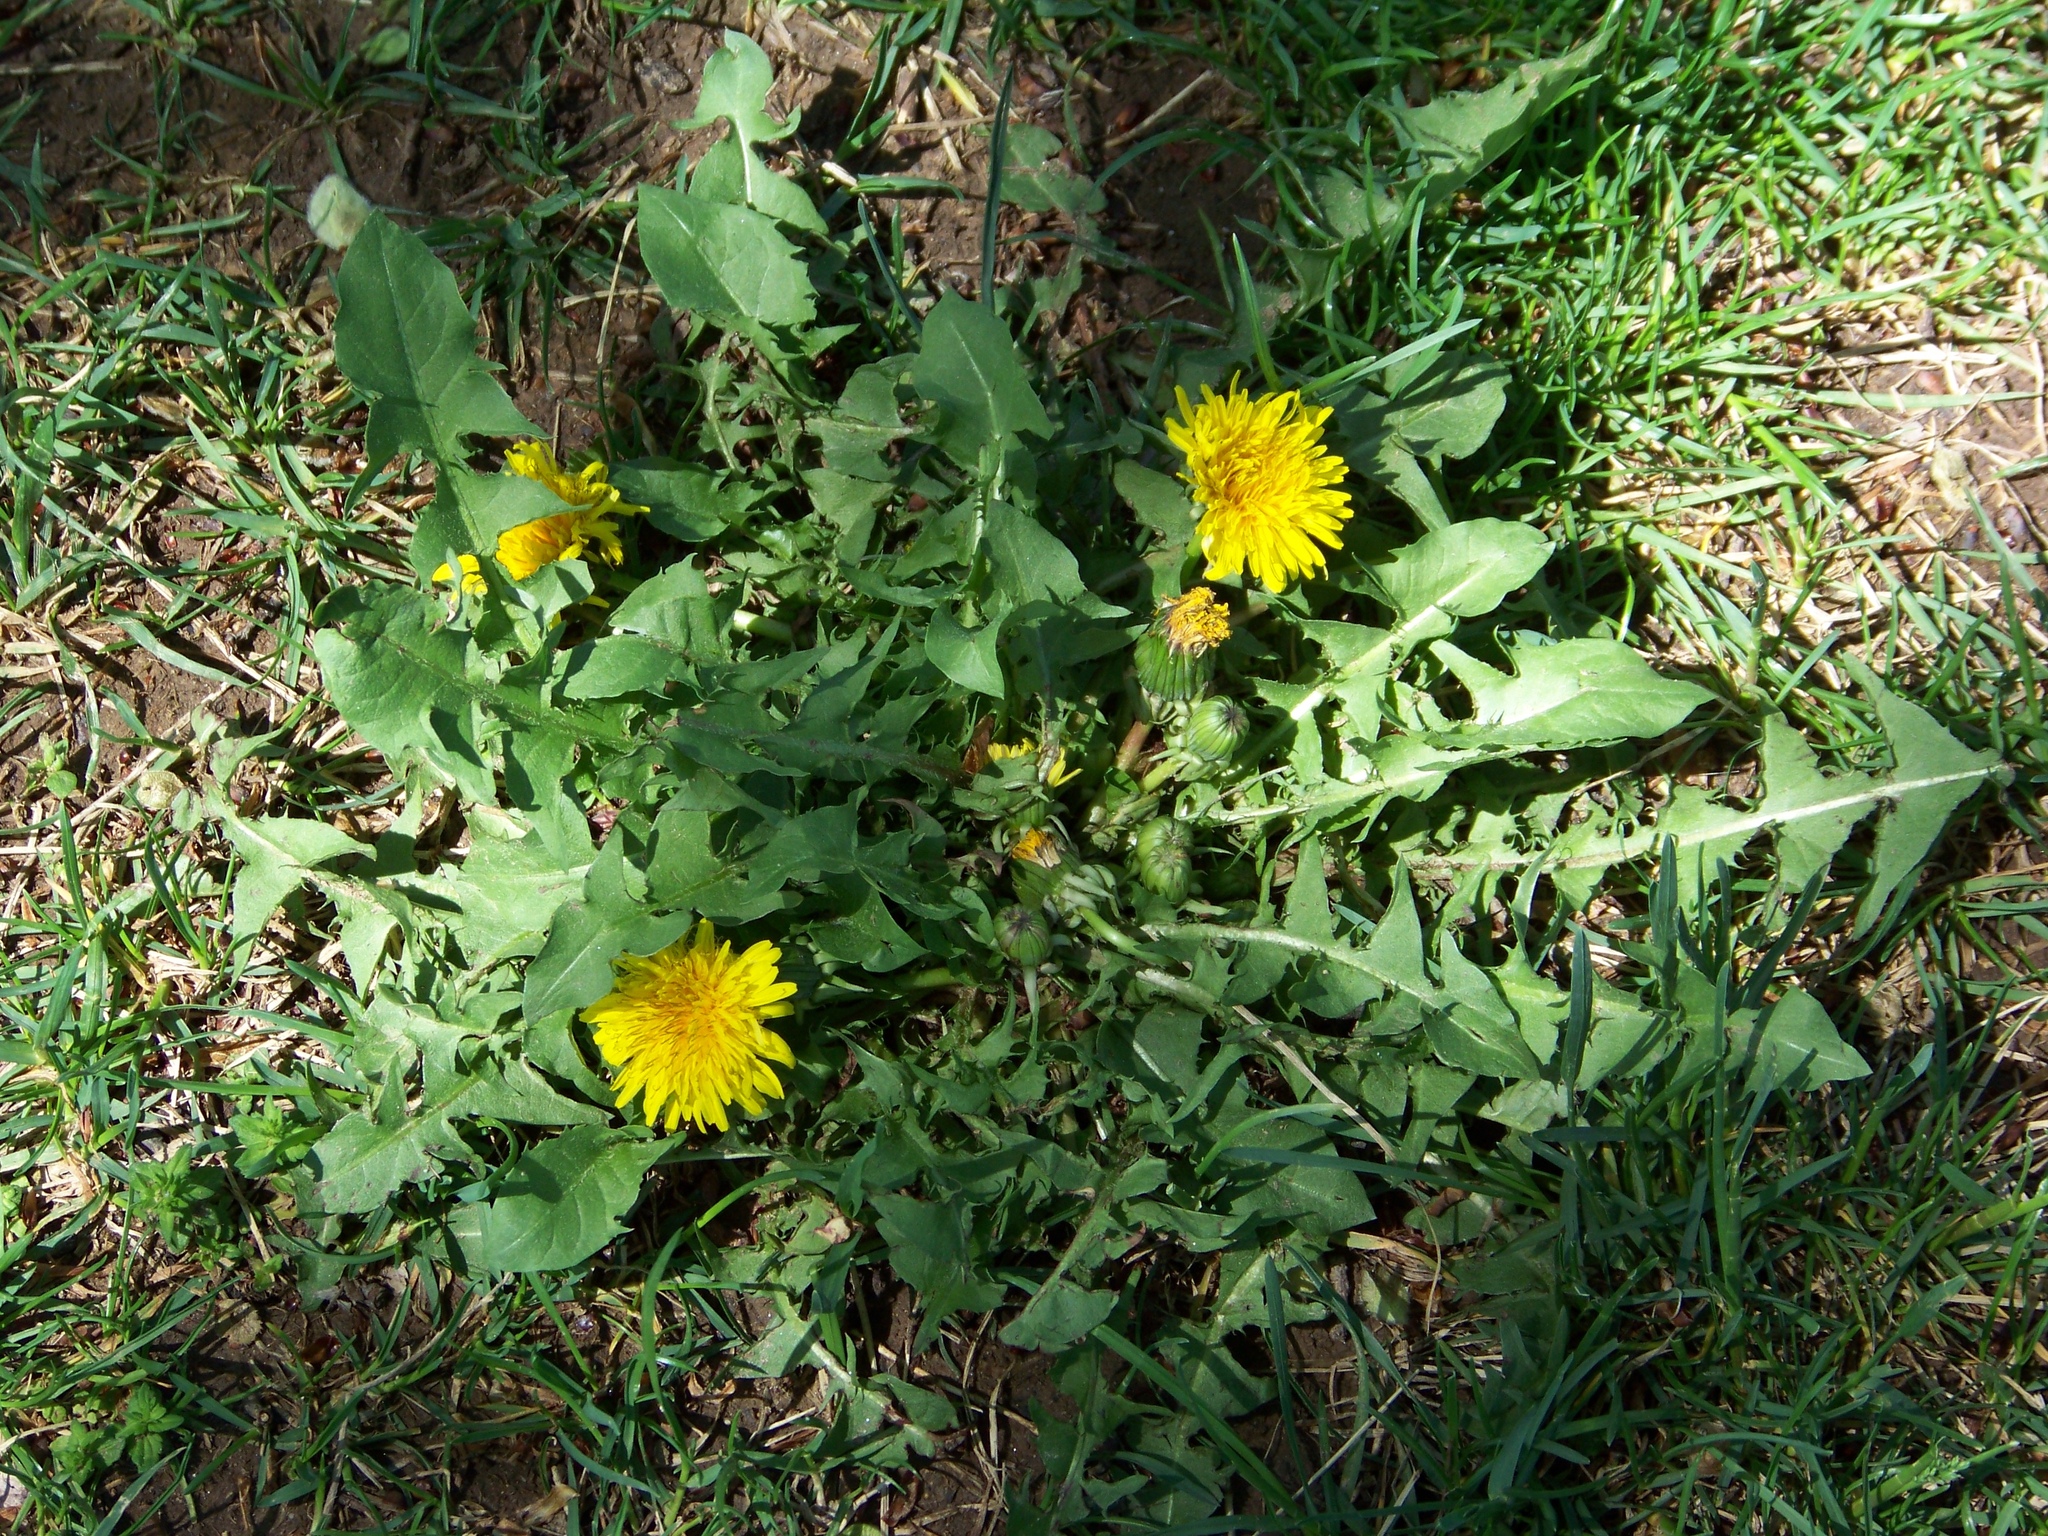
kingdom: Plantae
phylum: Tracheophyta
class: Magnoliopsida
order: Asterales
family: Asteraceae
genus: Taraxacum
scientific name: Taraxacum officinale
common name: Common dandelion
